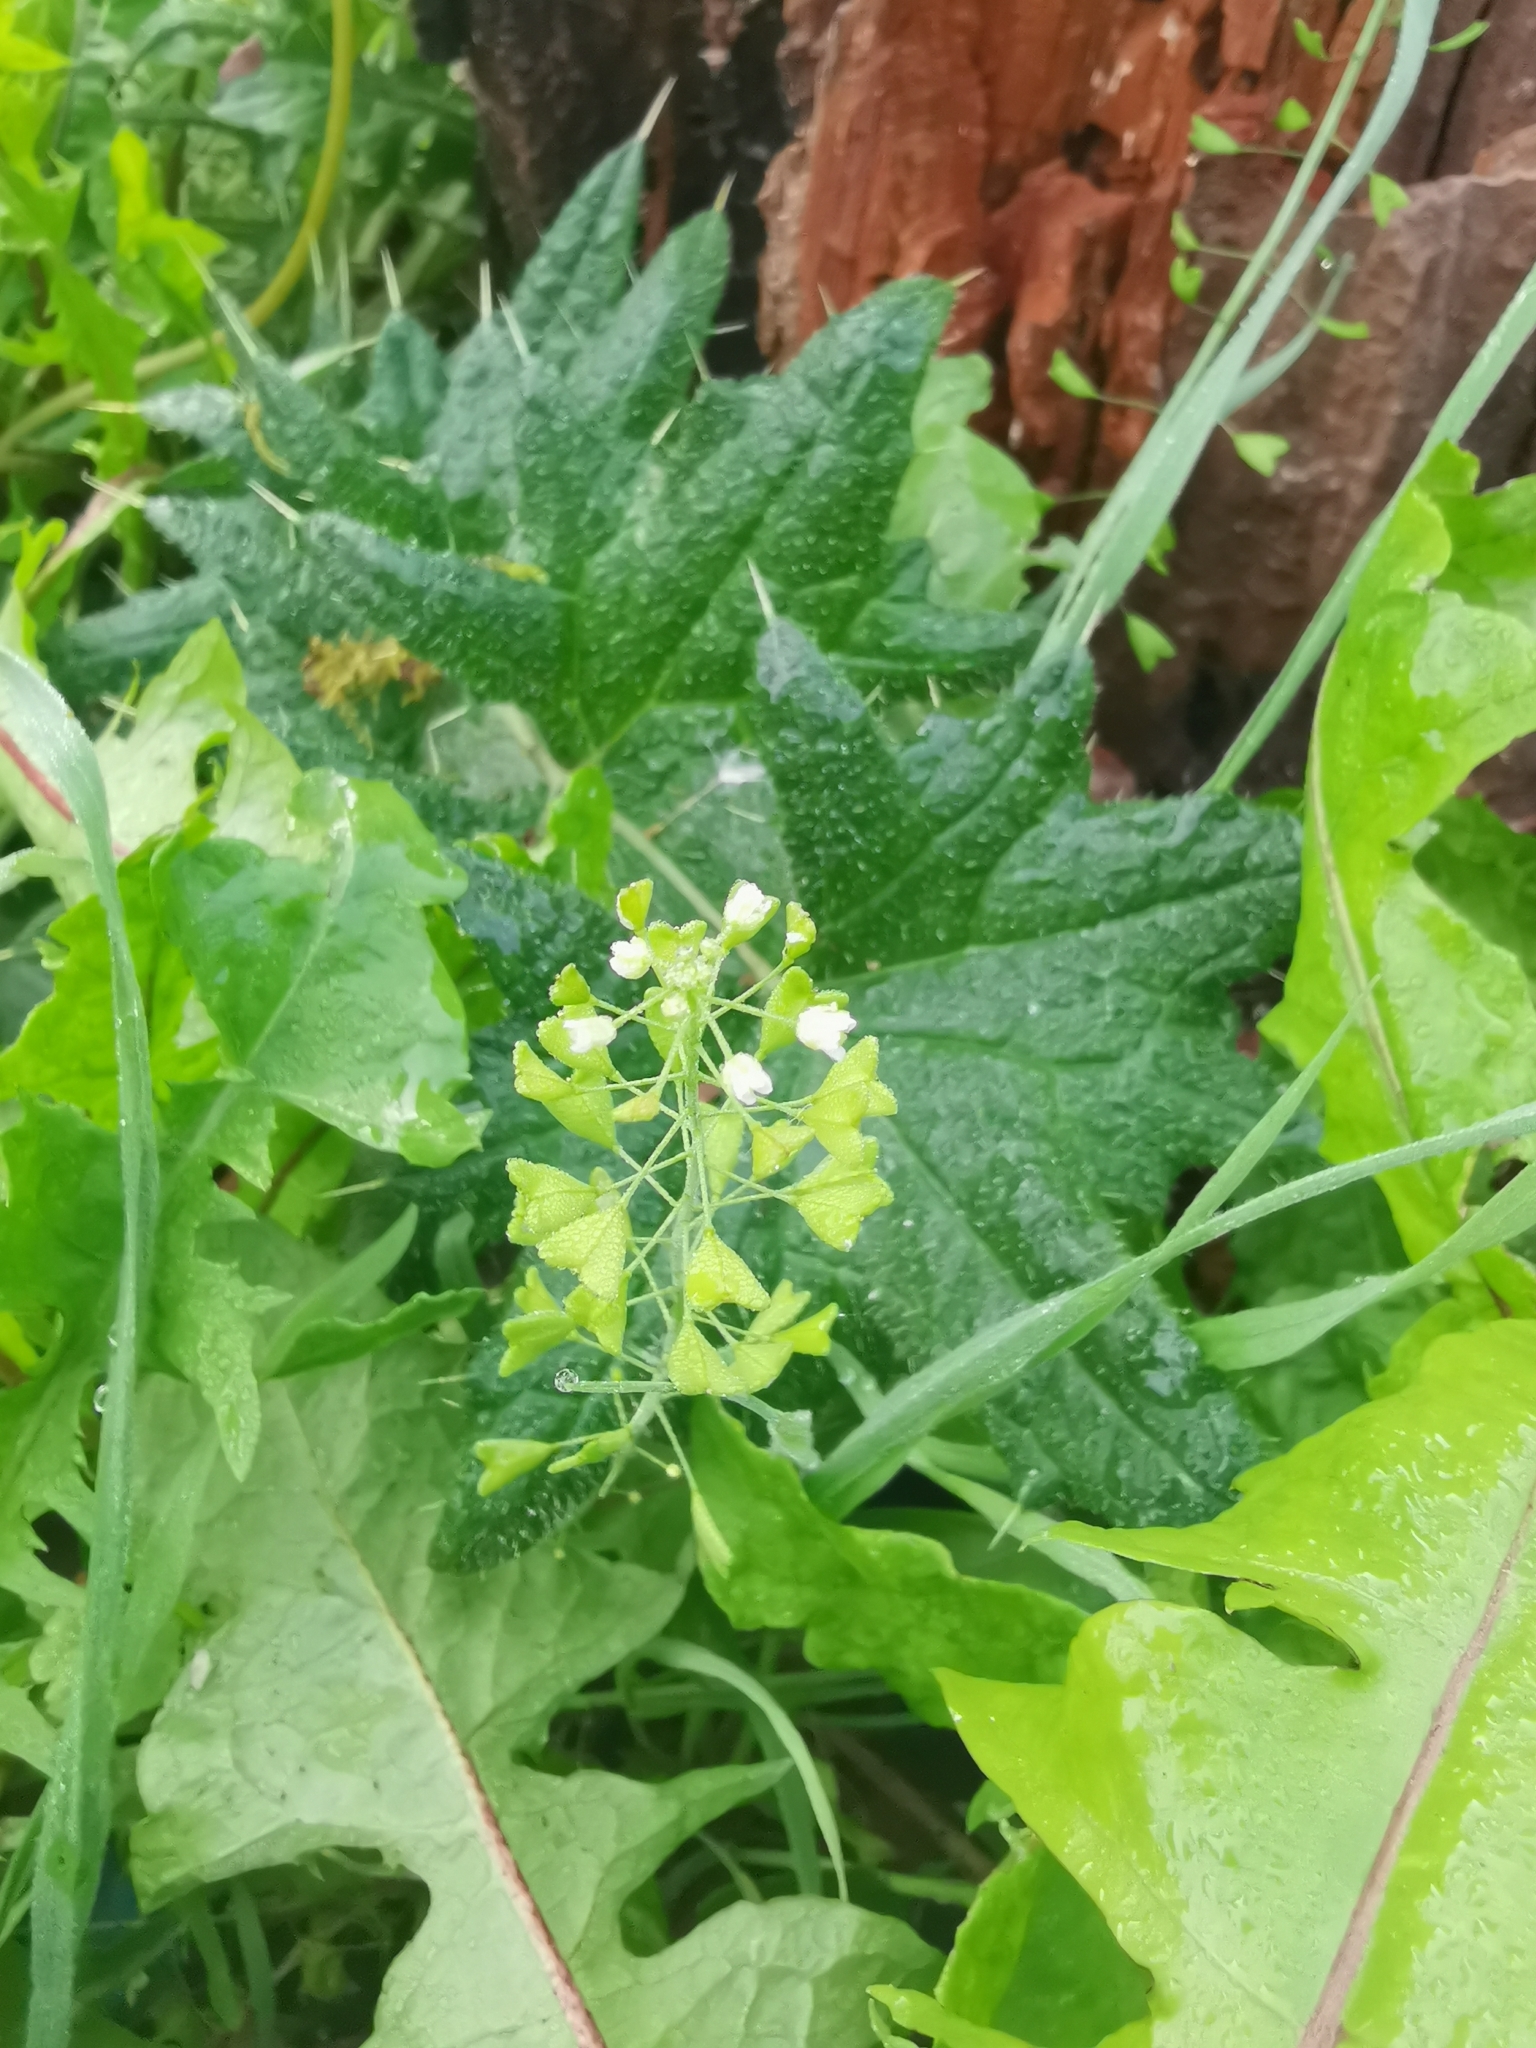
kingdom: Plantae
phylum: Tracheophyta
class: Magnoliopsida
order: Brassicales
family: Brassicaceae
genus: Capsella
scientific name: Capsella bursa-pastoris
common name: Shepherd's purse
